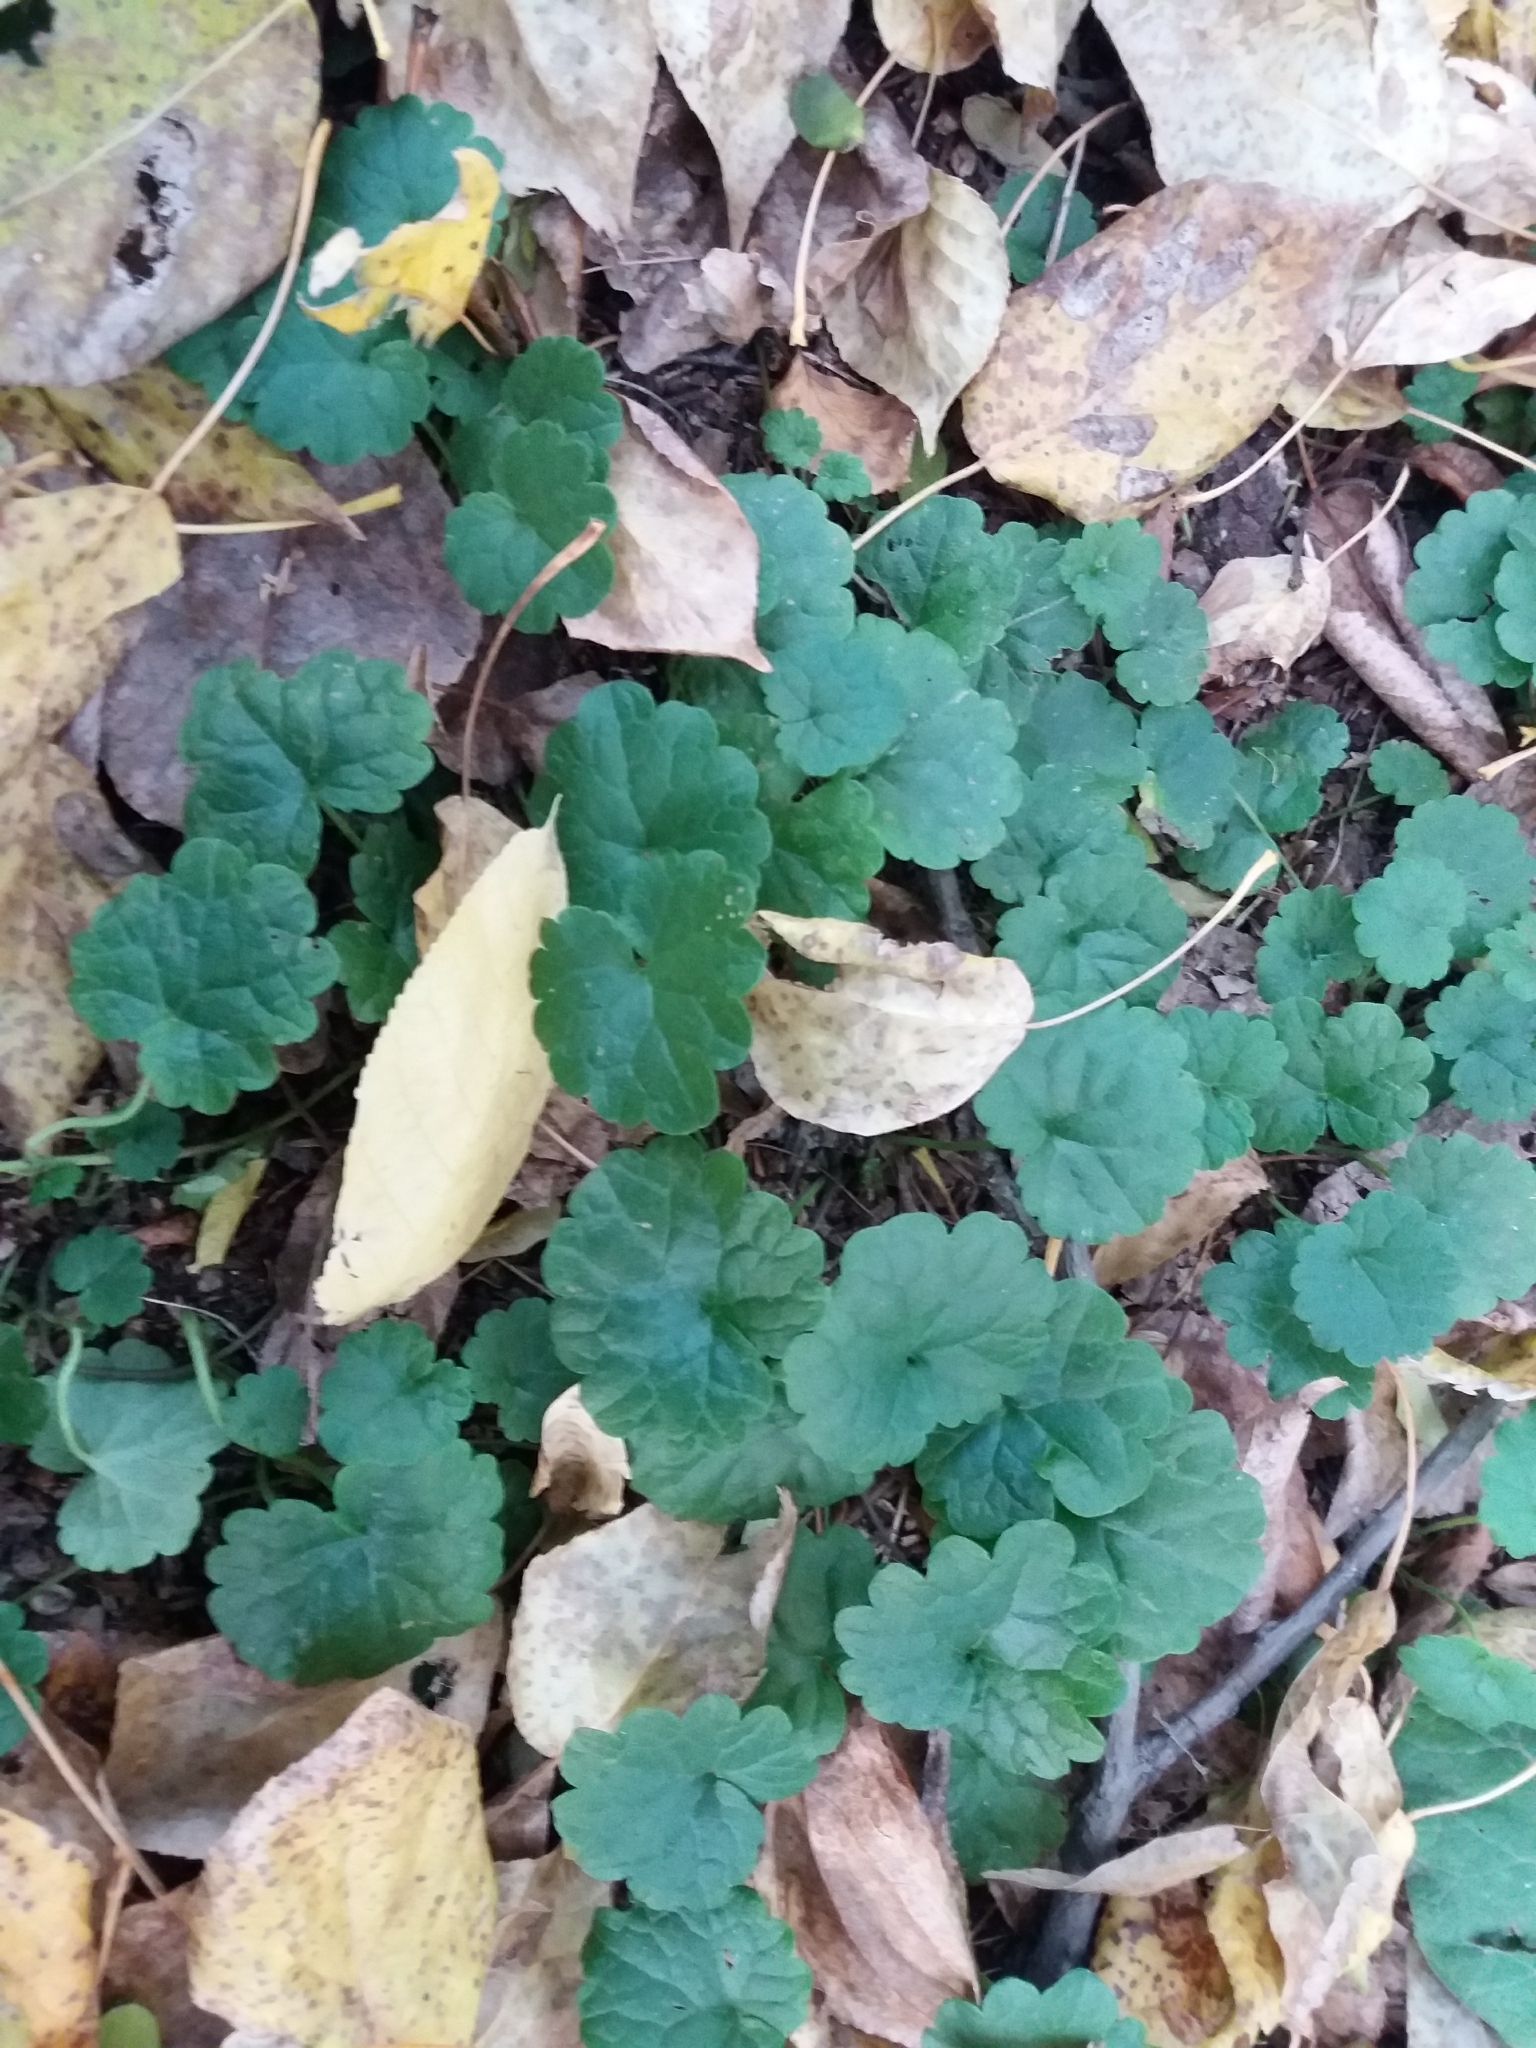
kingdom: Plantae
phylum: Tracheophyta
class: Magnoliopsida
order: Lamiales
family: Lamiaceae
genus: Glechoma
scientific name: Glechoma hederacea
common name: Ground ivy
